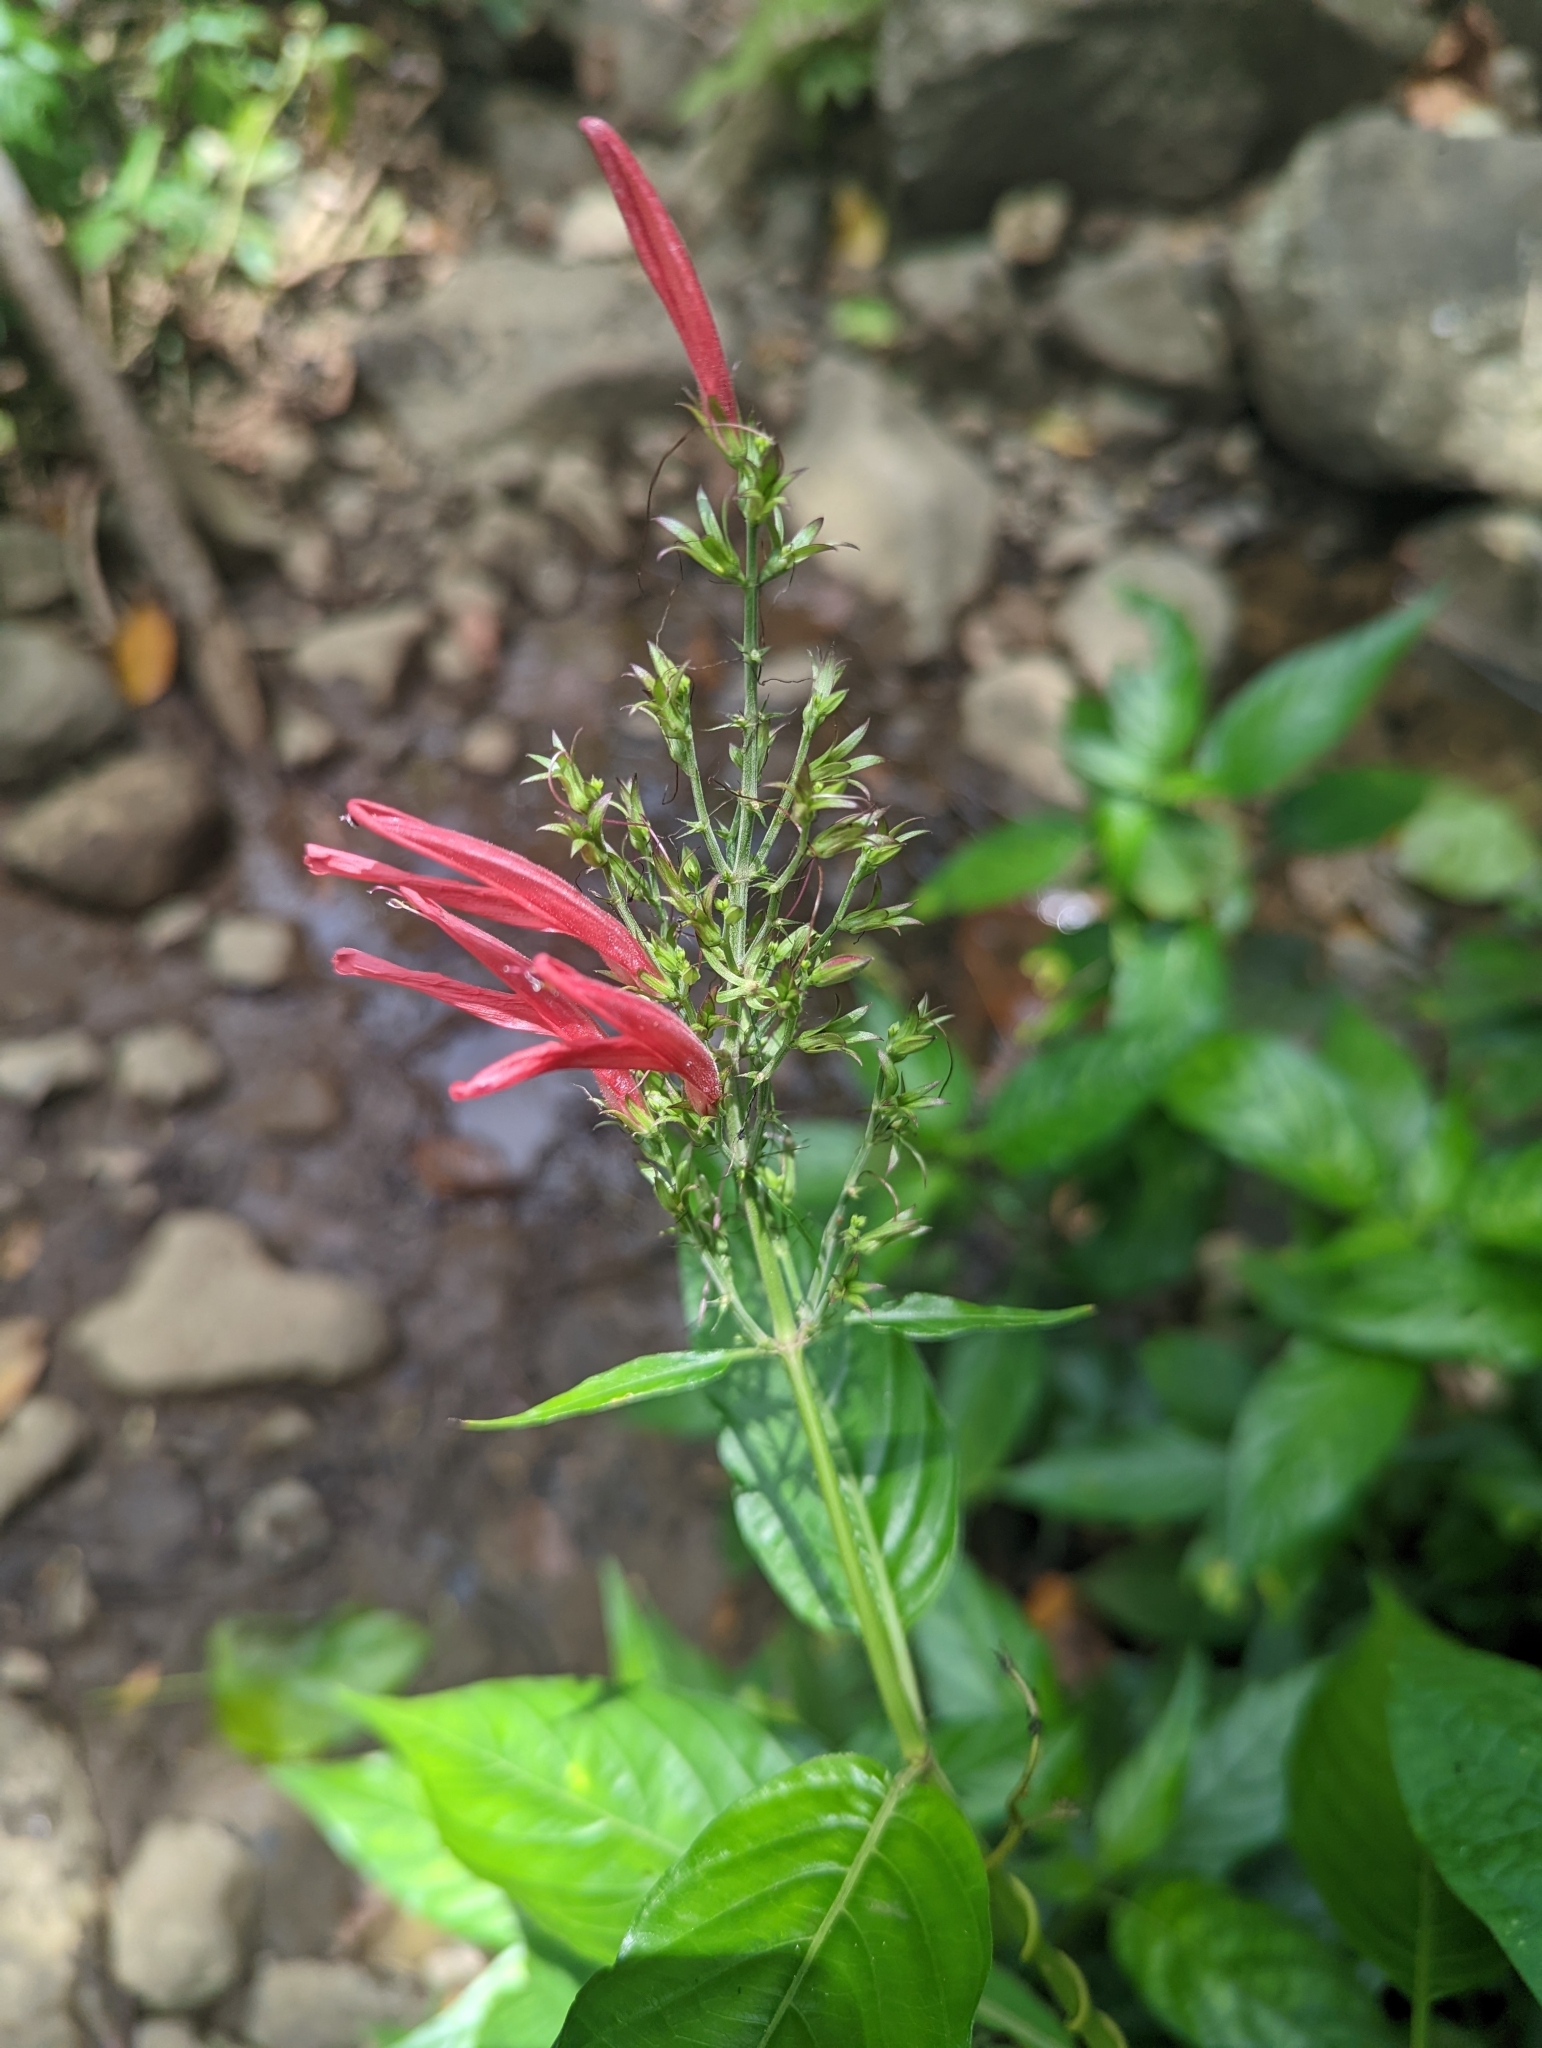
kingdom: Plantae
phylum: Tracheophyta
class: Magnoliopsida
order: Lamiales
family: Acanthaceae
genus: Dianthera
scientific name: Dianthera secunda
